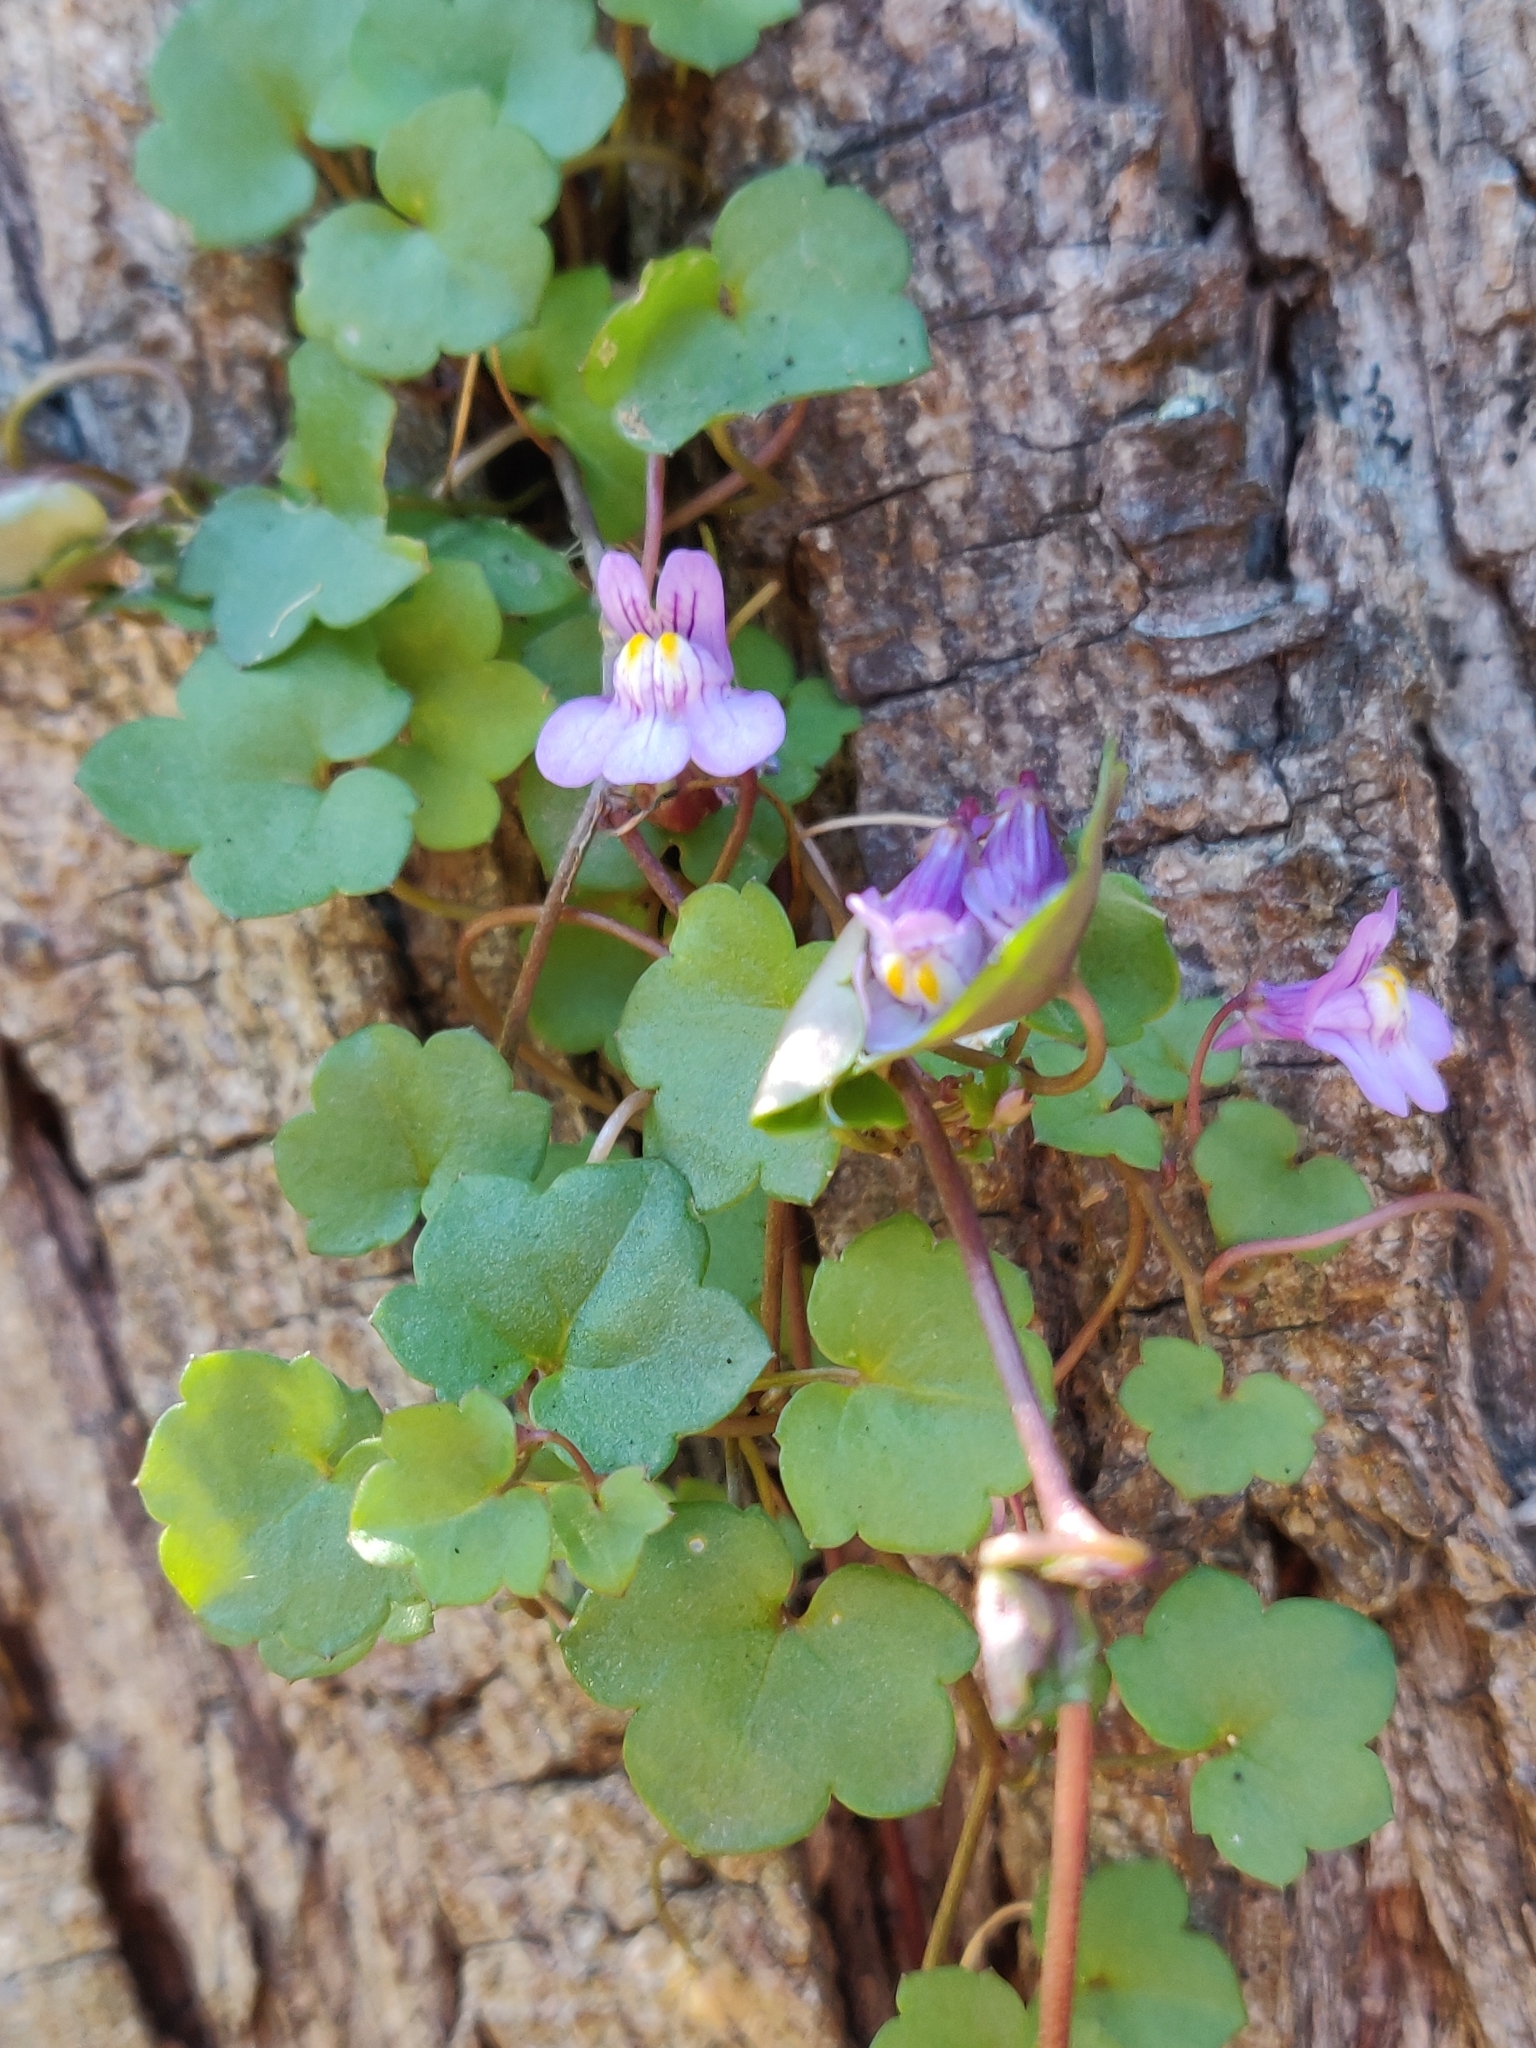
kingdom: Plantae
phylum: Tracheophyta
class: Magnoliopsida
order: Lamiales
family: Plantaginaceae
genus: Cymbalaria
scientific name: Cymbalaria muralis
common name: Ivy-leaved toadflax
